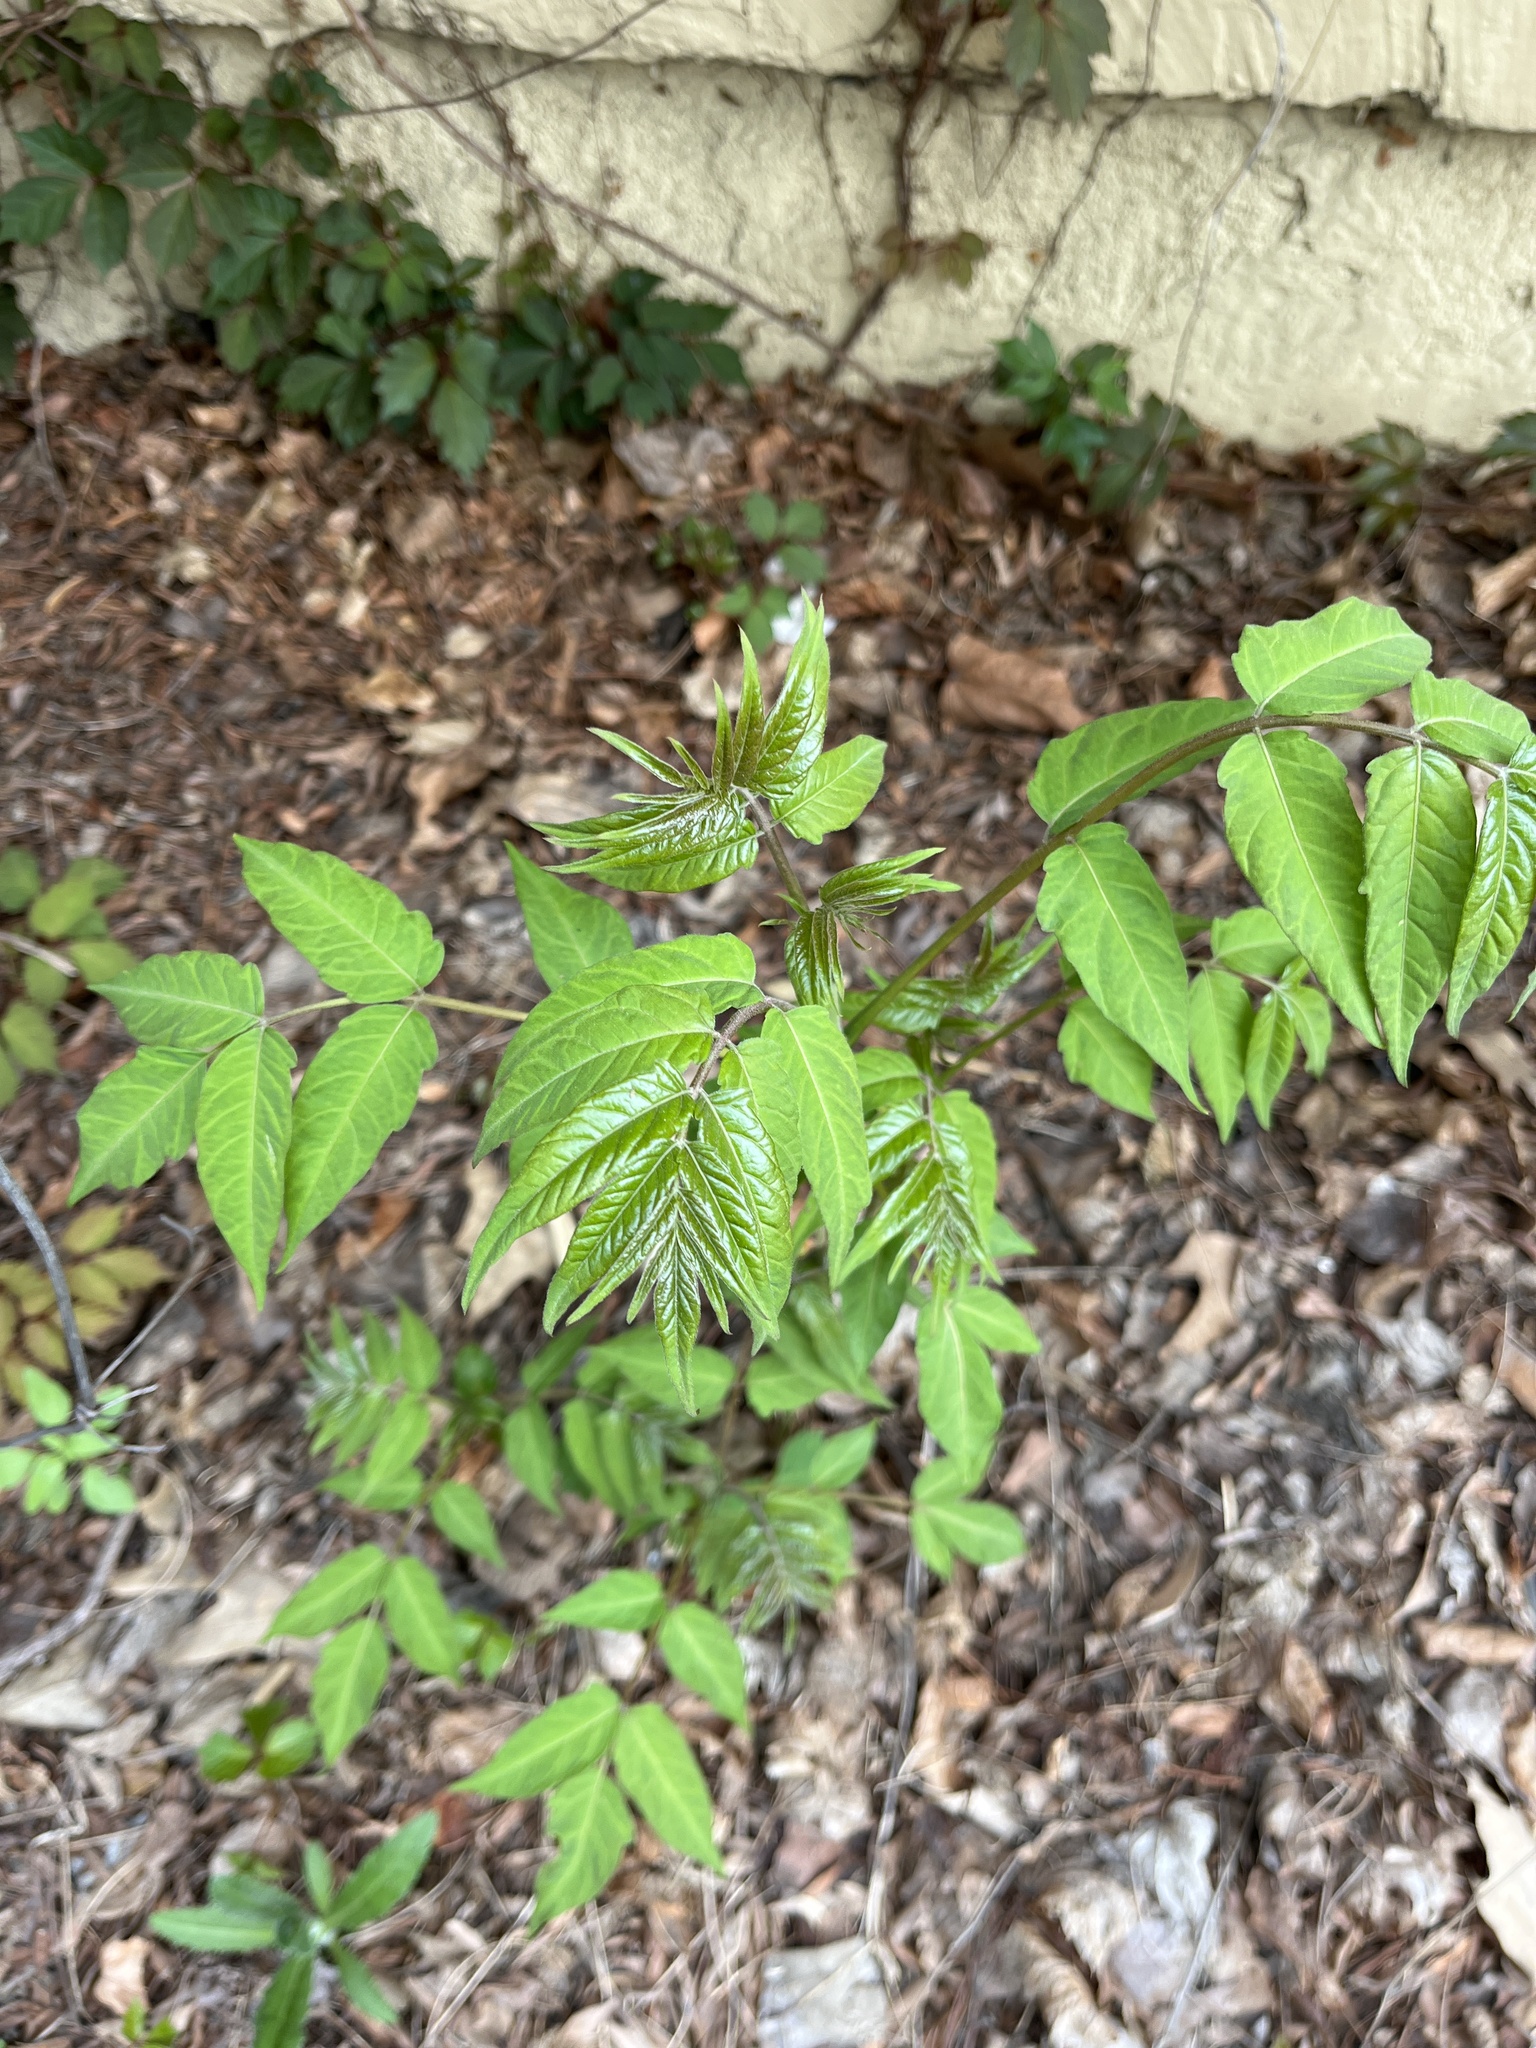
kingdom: Plantae
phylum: Tracheophyta
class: Magnoliopsida
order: Sapindales
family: Simaroubaceae
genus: Ailanthus
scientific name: Ailanthus altissima
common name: Tree-of-heaven
